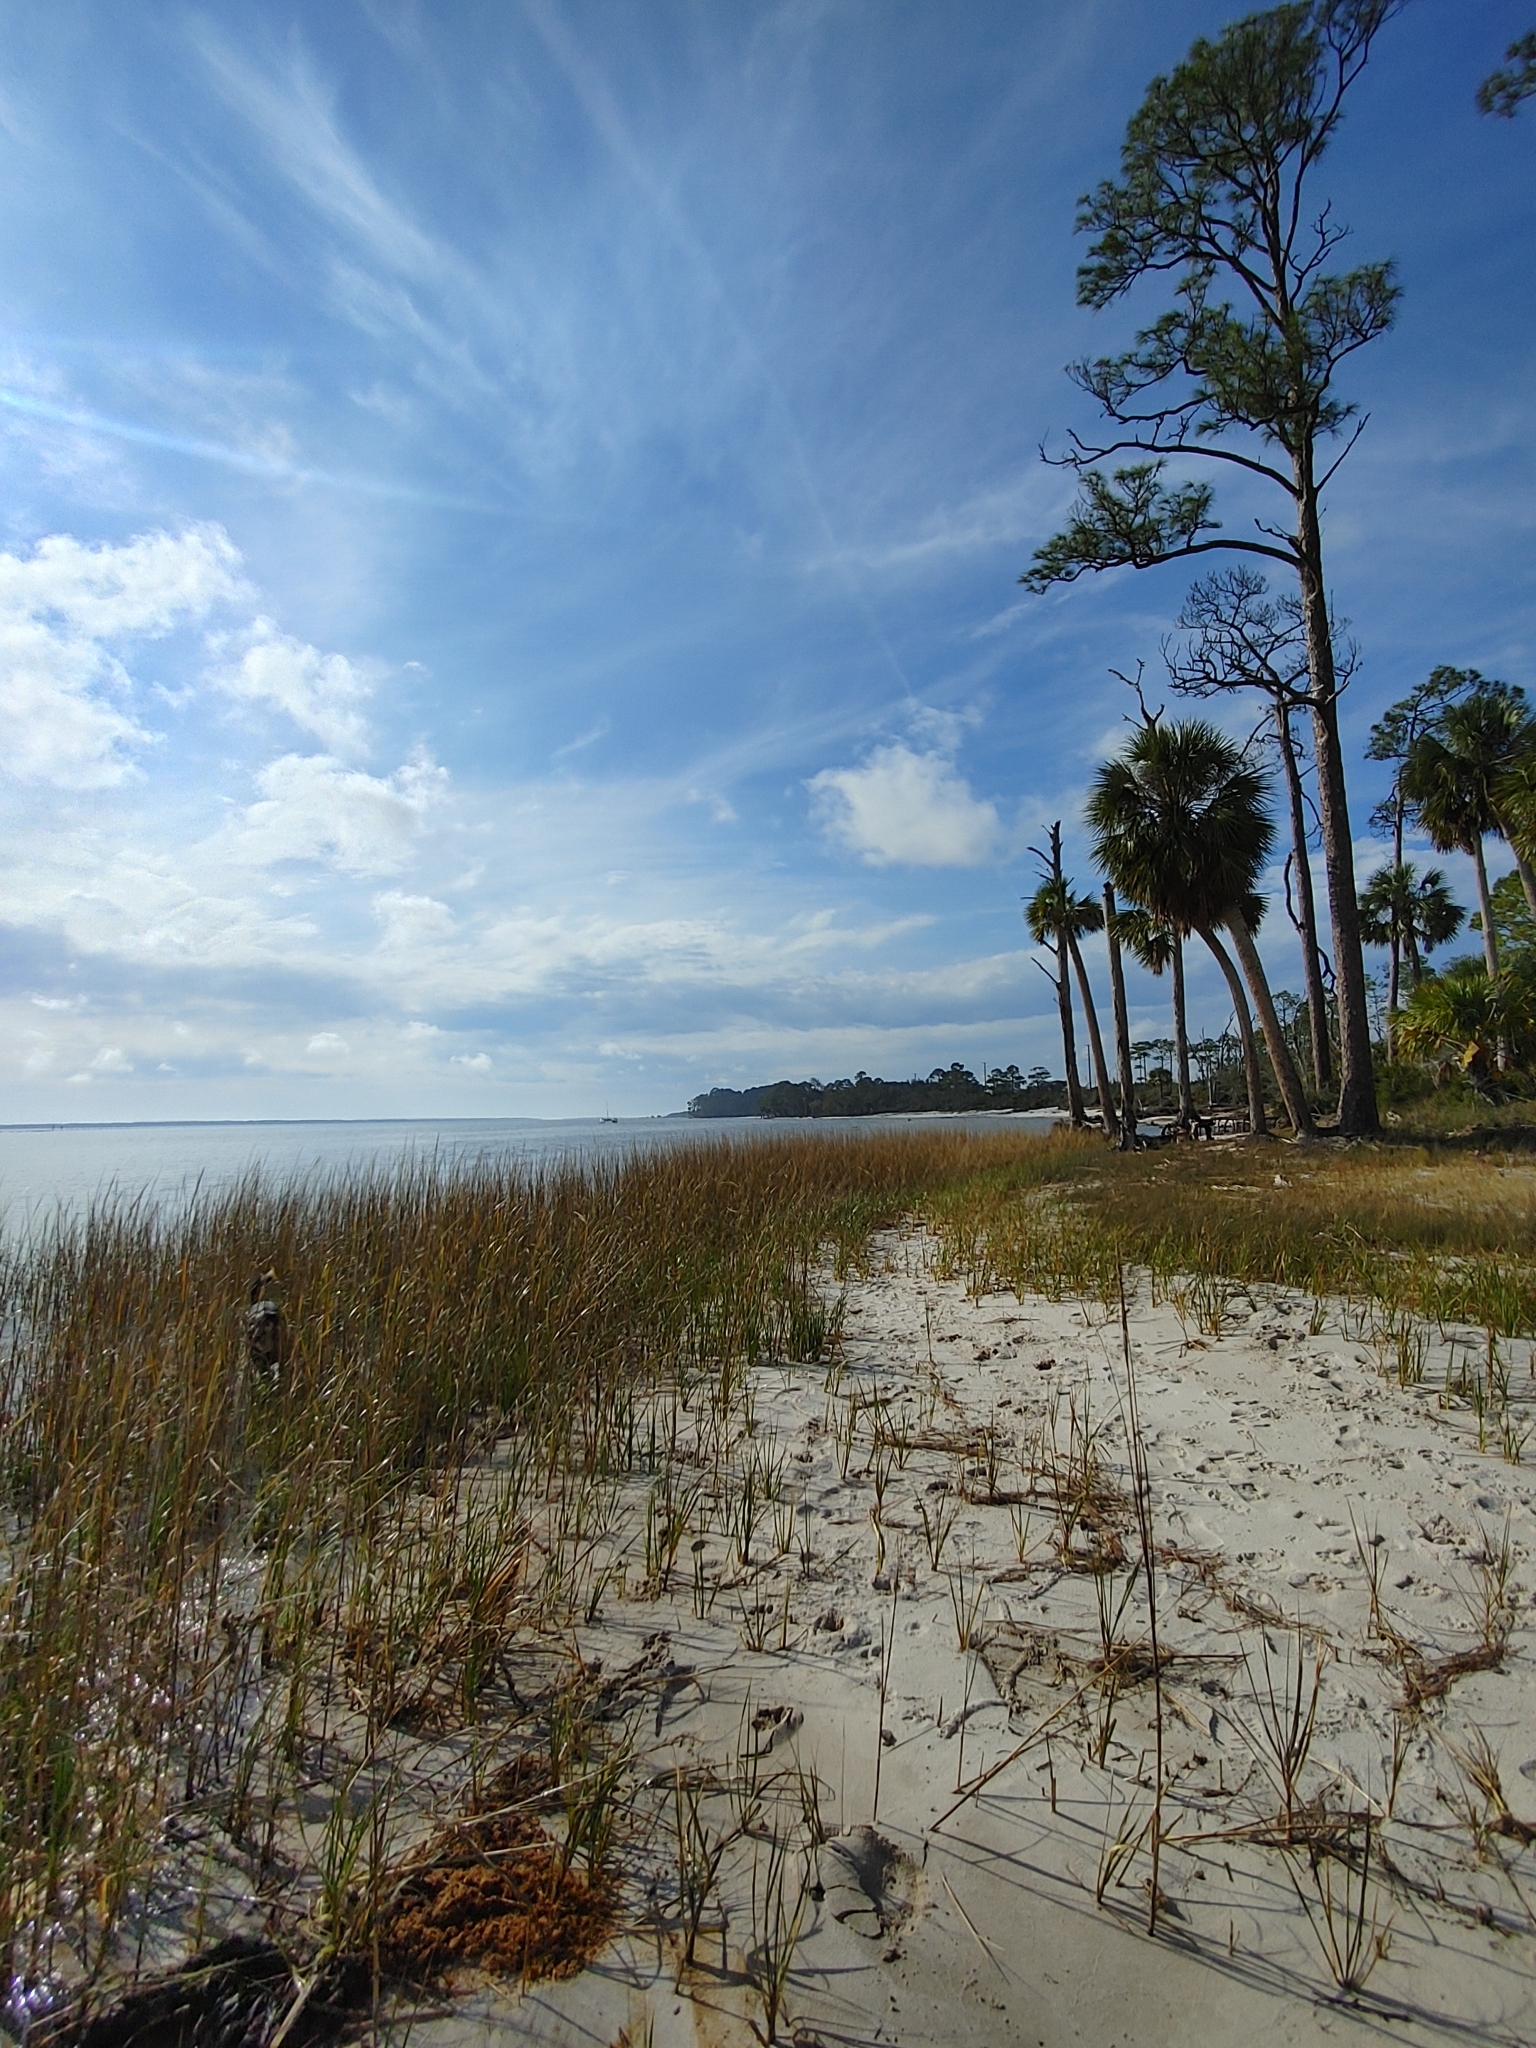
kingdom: Plantae
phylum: Tracheophyta
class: Liliopsida
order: Arecales
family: Arecaceae
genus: Sabal
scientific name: Sabal palmetto
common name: Blue palmetto
